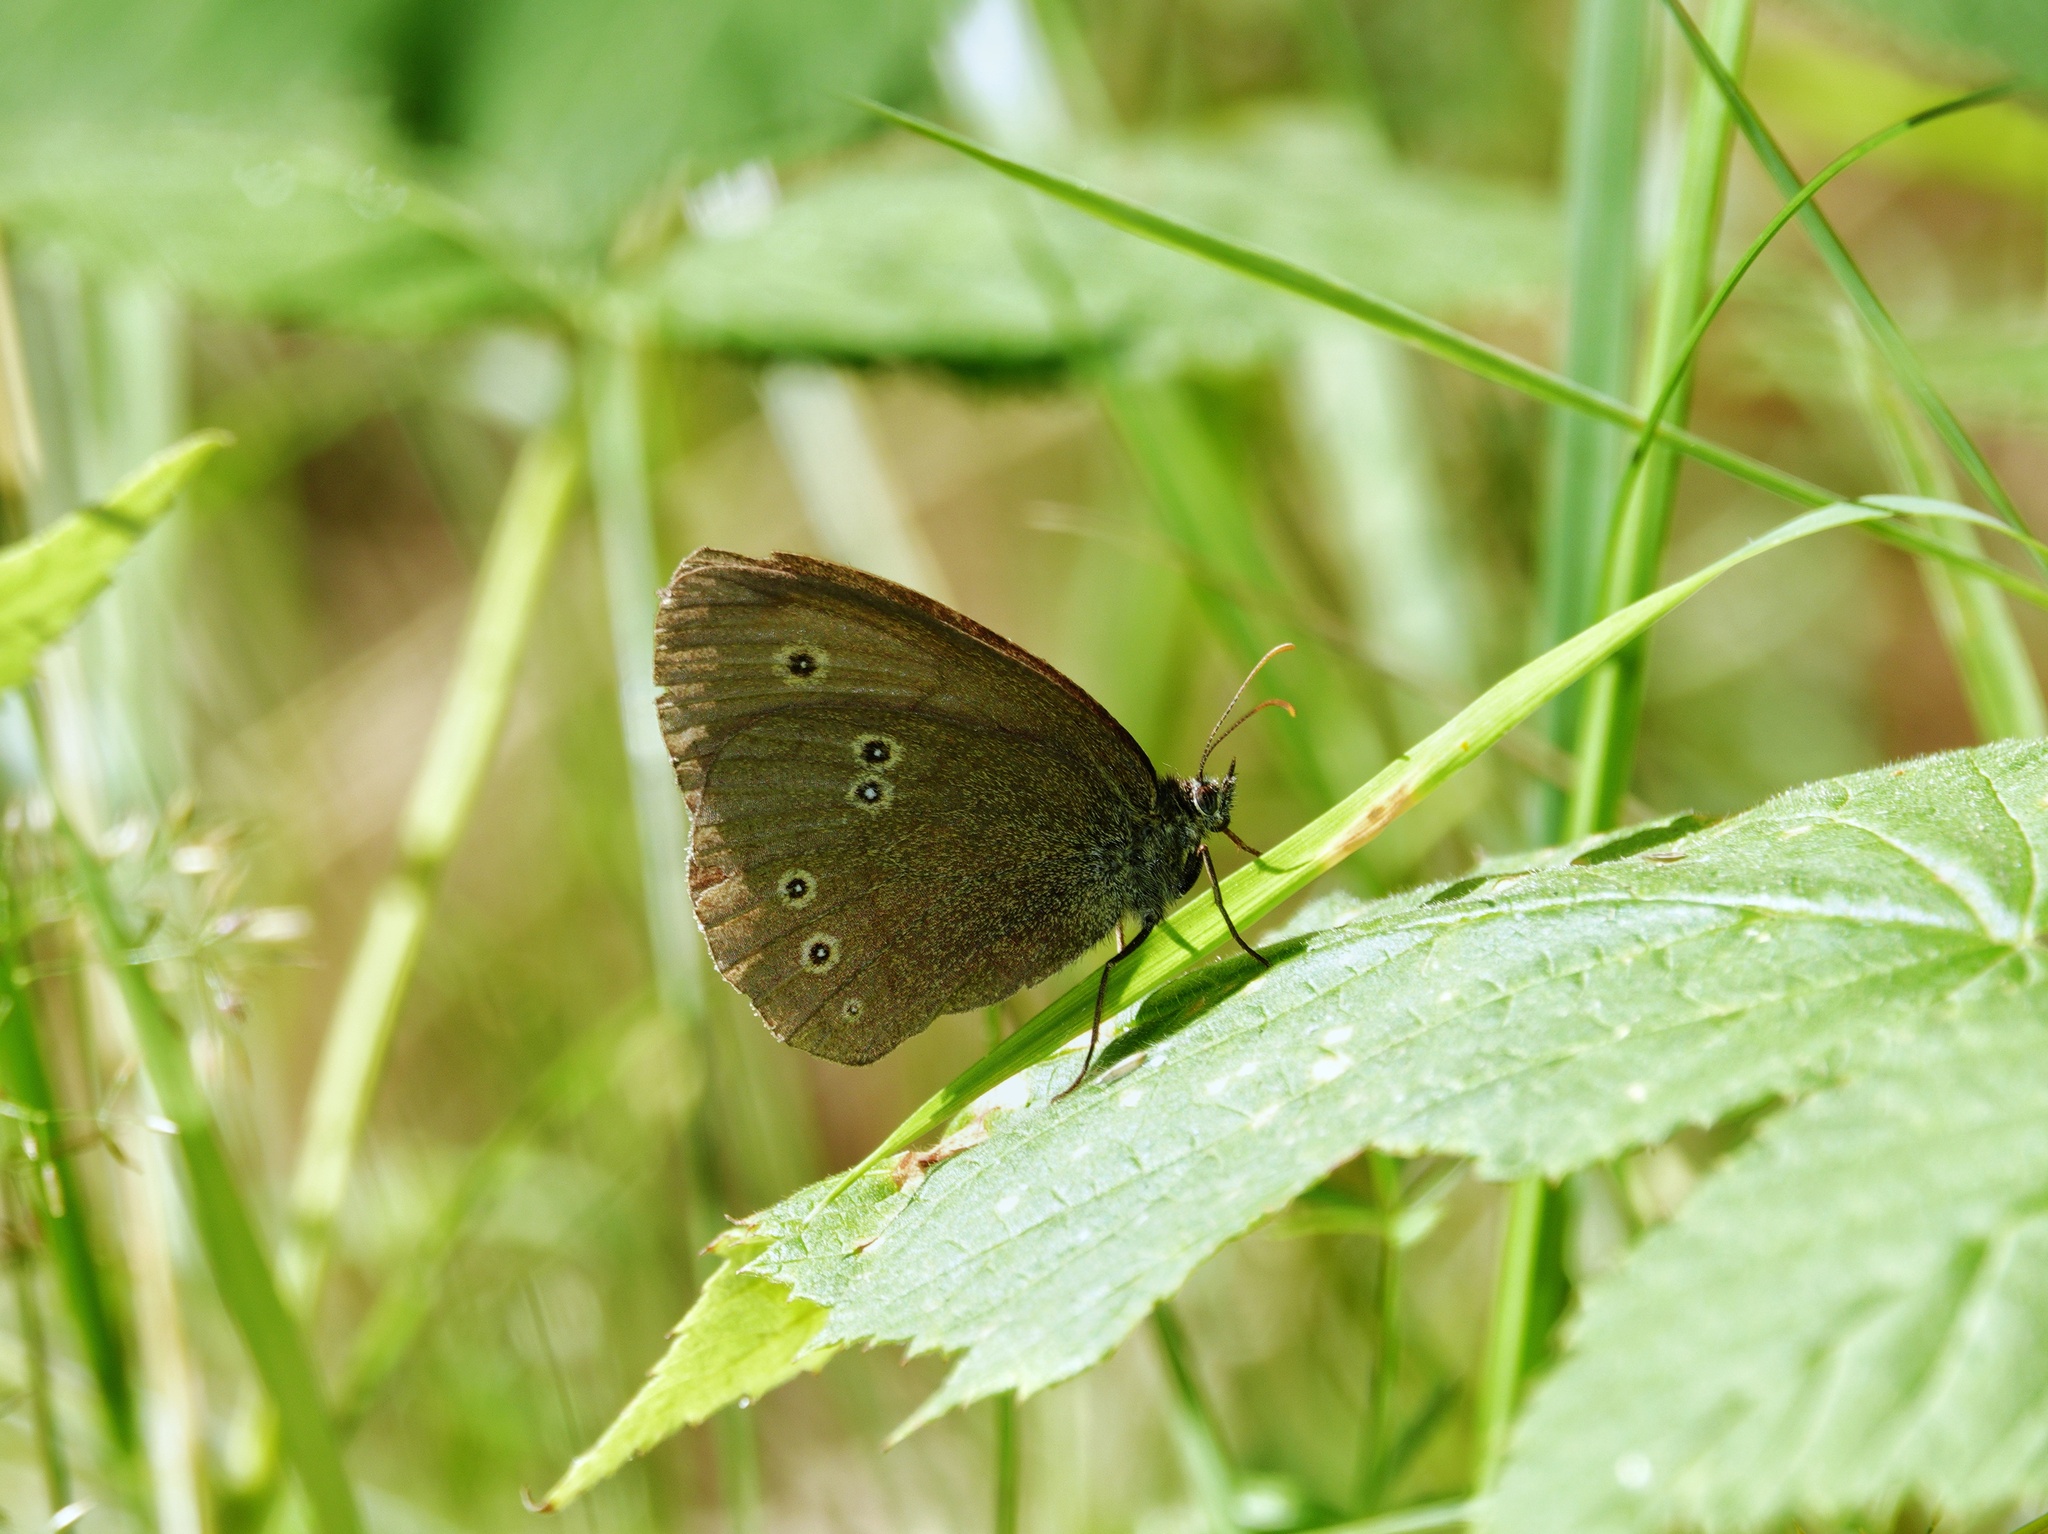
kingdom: Animalia
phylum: Arthropoda
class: Insecta
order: Lepidoptera
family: Nymphalidae
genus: Aphantopus
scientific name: Aphantopus hyperantus
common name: Ringlet
